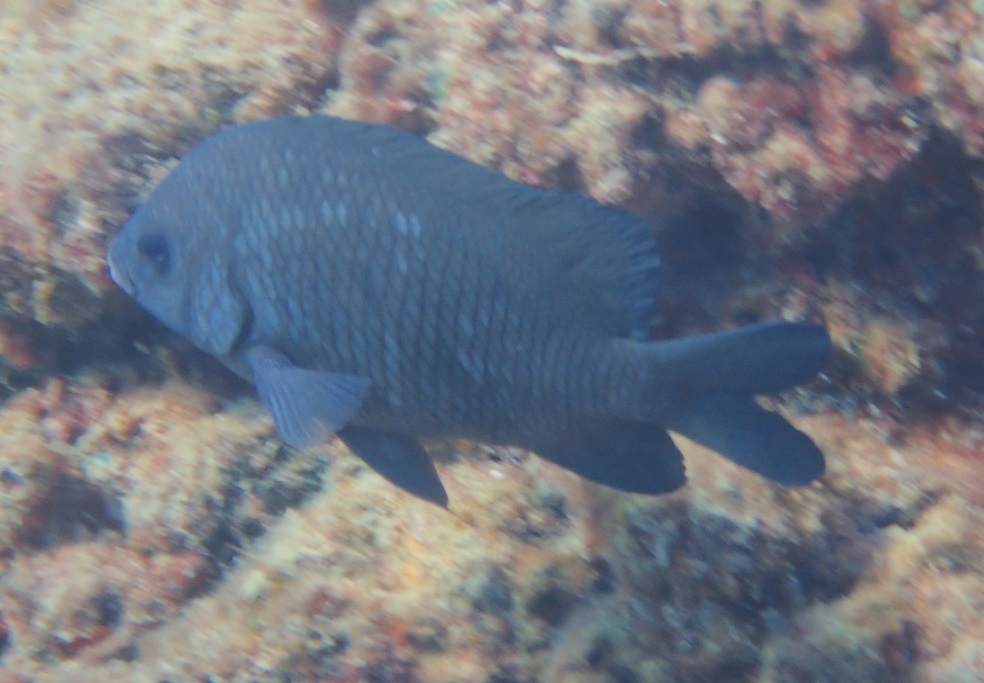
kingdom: Animalia
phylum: Chordata
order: Perciformes
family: Pomacentridae
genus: Parma
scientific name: Parma oligolepis
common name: Big-scale parma
